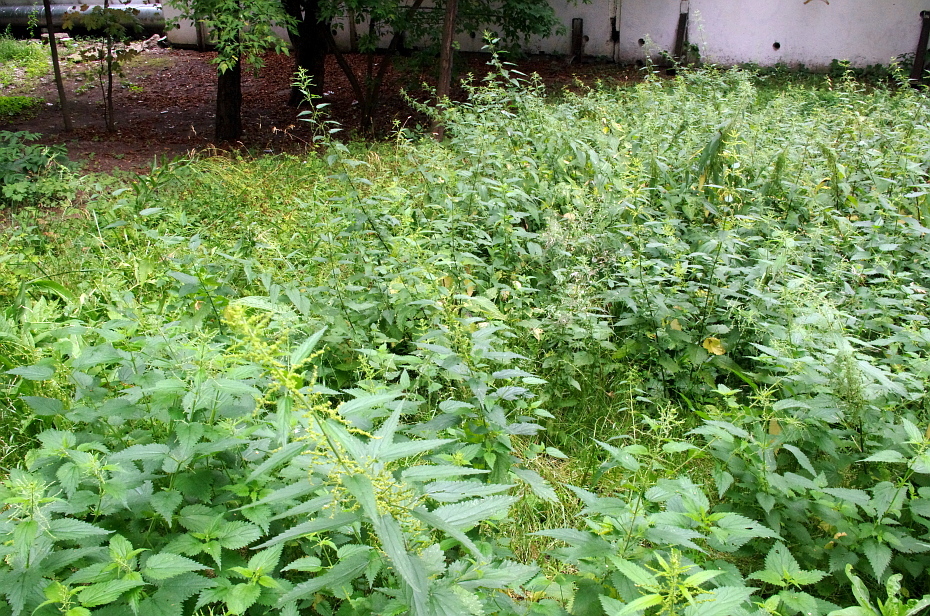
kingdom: Plantae
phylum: Tracheophyta
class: Magnoliopsida
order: Rosales
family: Urticaceae
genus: Urtica
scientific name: Urtica dioica
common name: Common nettle
